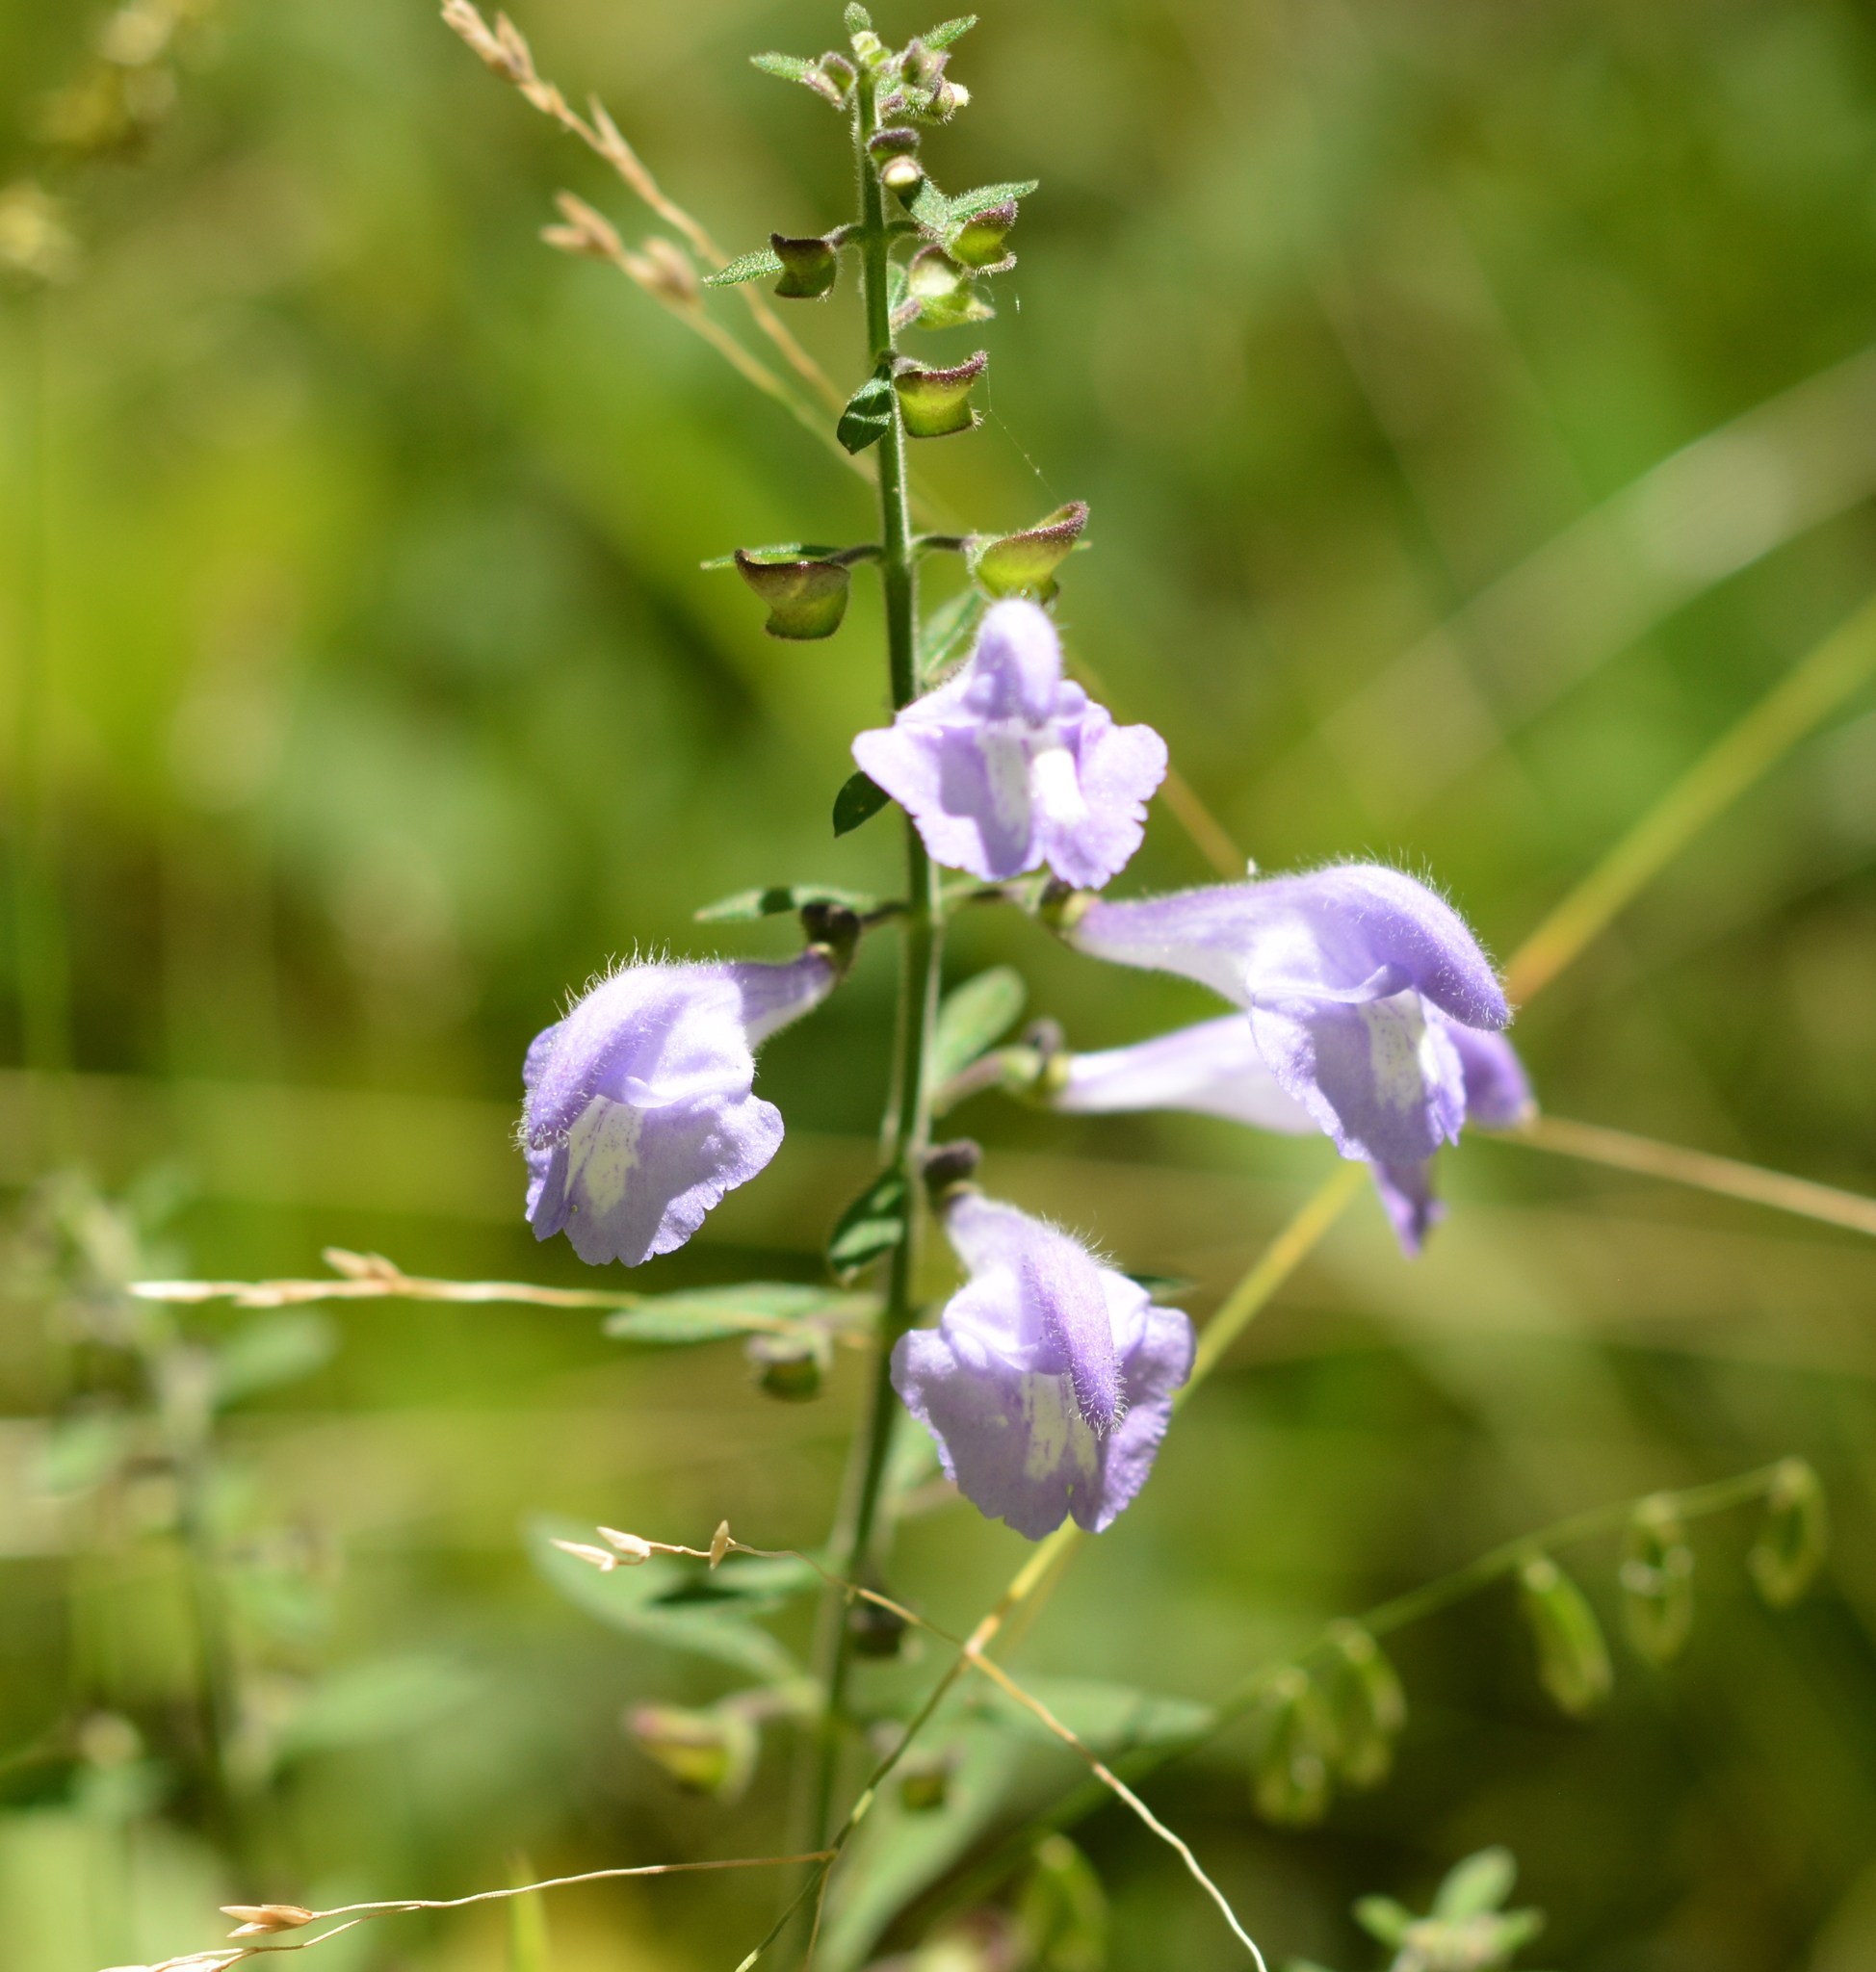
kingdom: Plantae
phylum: Tracheophyta
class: Magnoliopsida
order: Lamiales
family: Lamiaceae
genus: Scutellaria
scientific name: Scutellaria integrifolia
